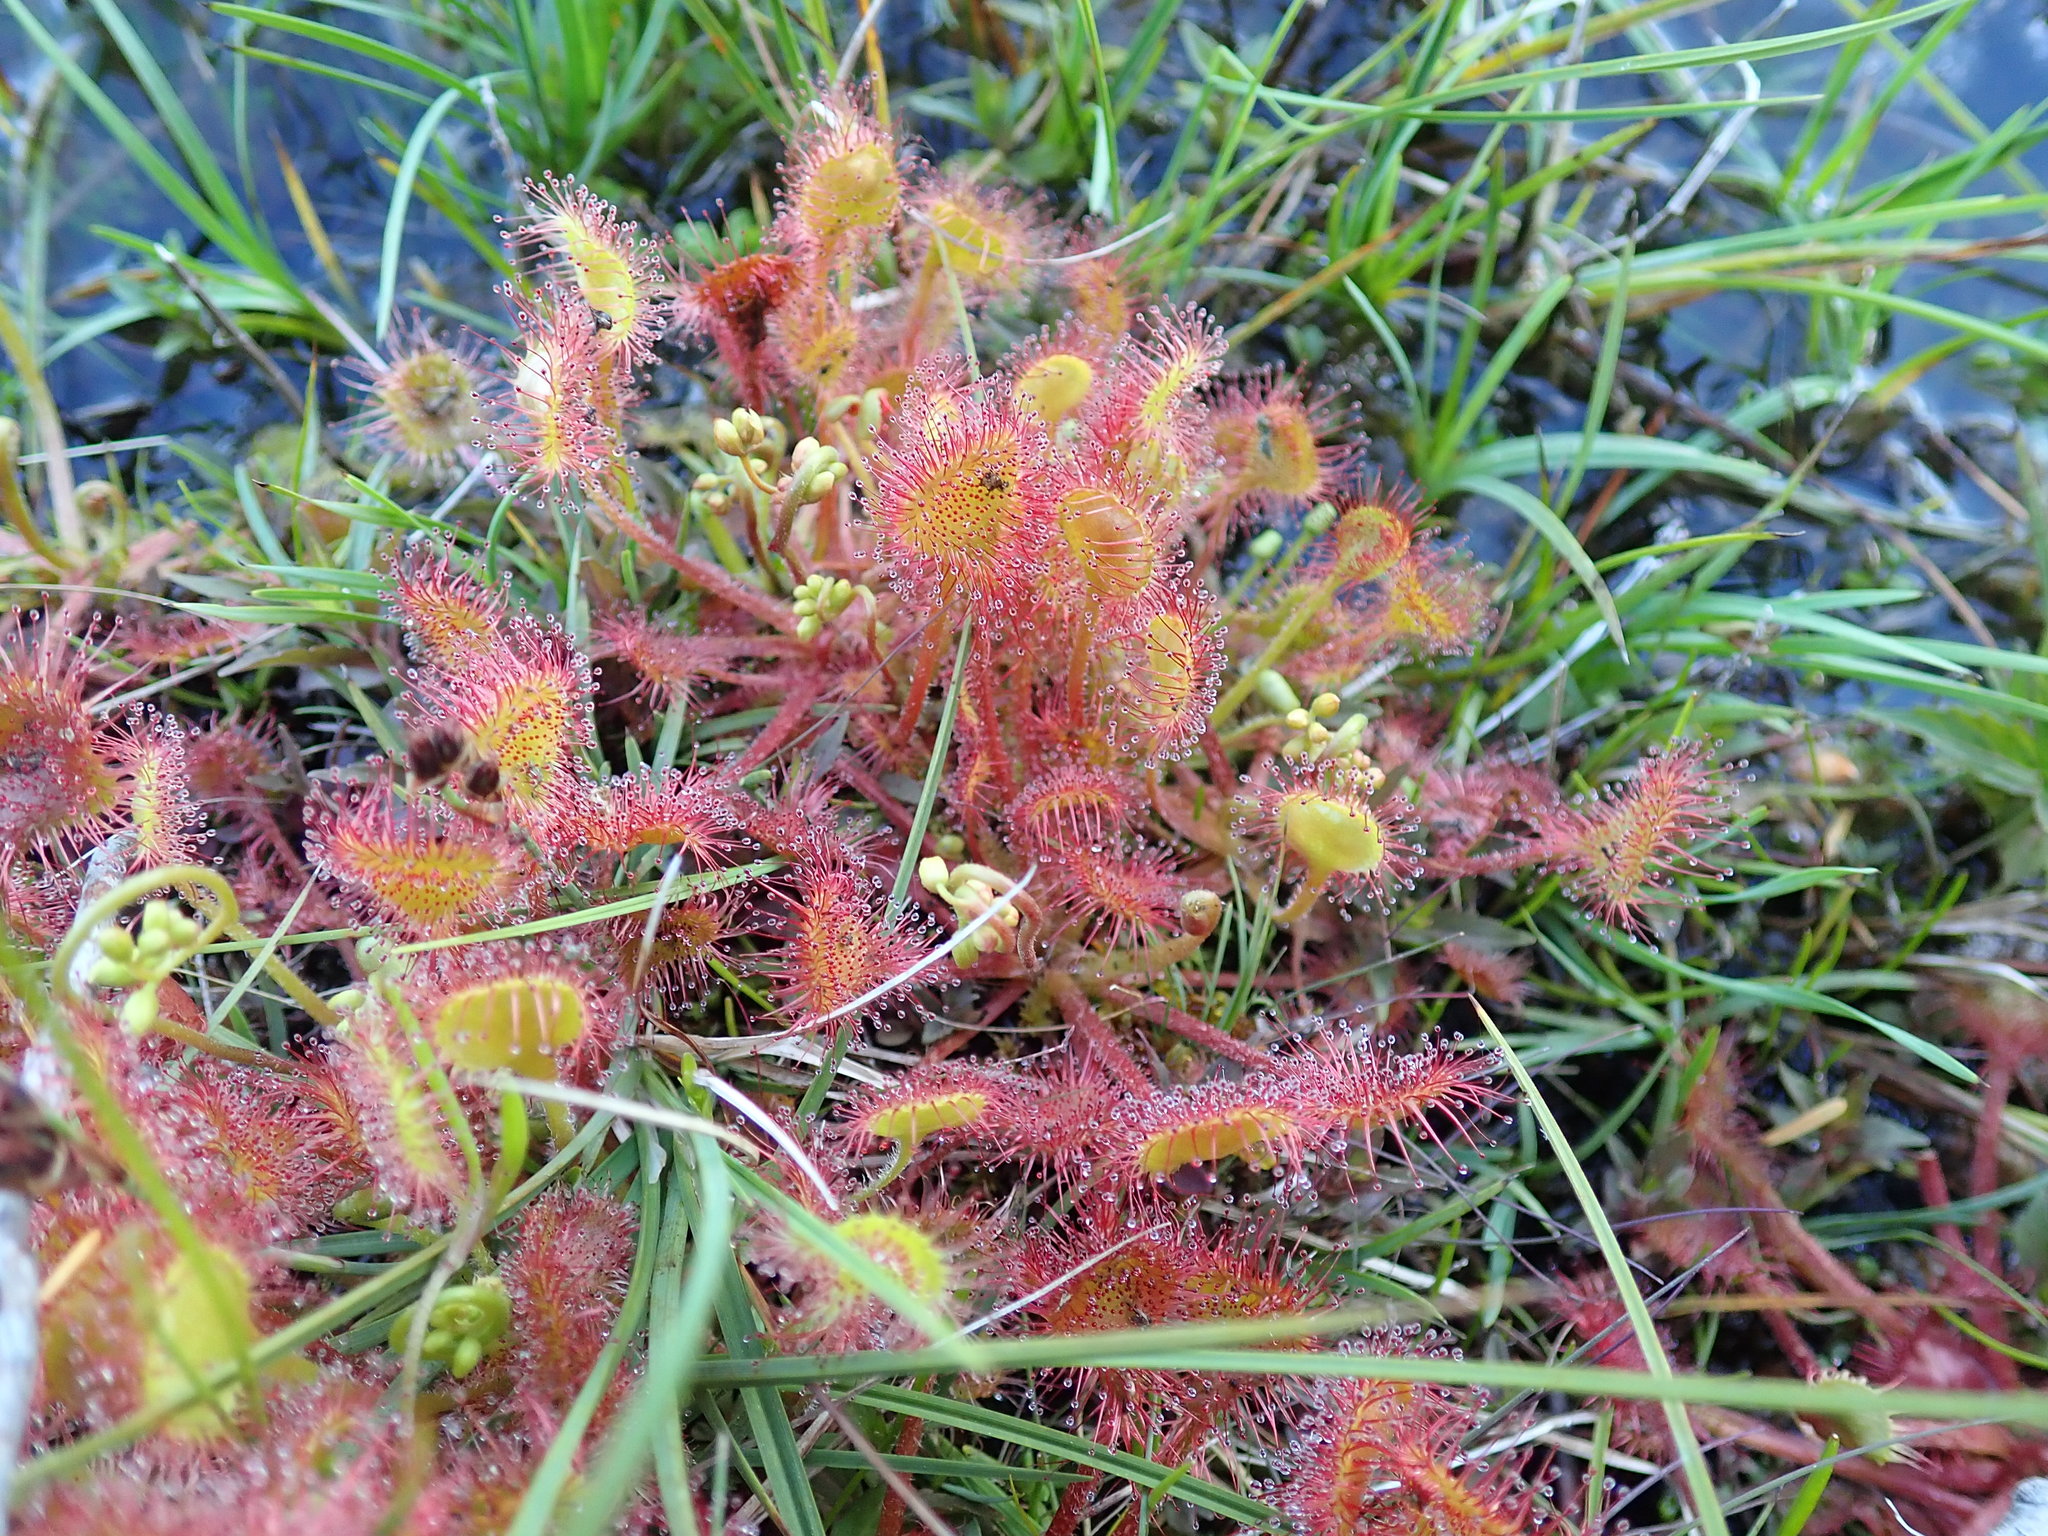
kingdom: Plantae
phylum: Tracheophyta
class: Magnoliopsida
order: Caryophyllales
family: Droseraceae
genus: Drosera
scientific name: Drosera rotundifolia
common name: Round-leaved sundew
